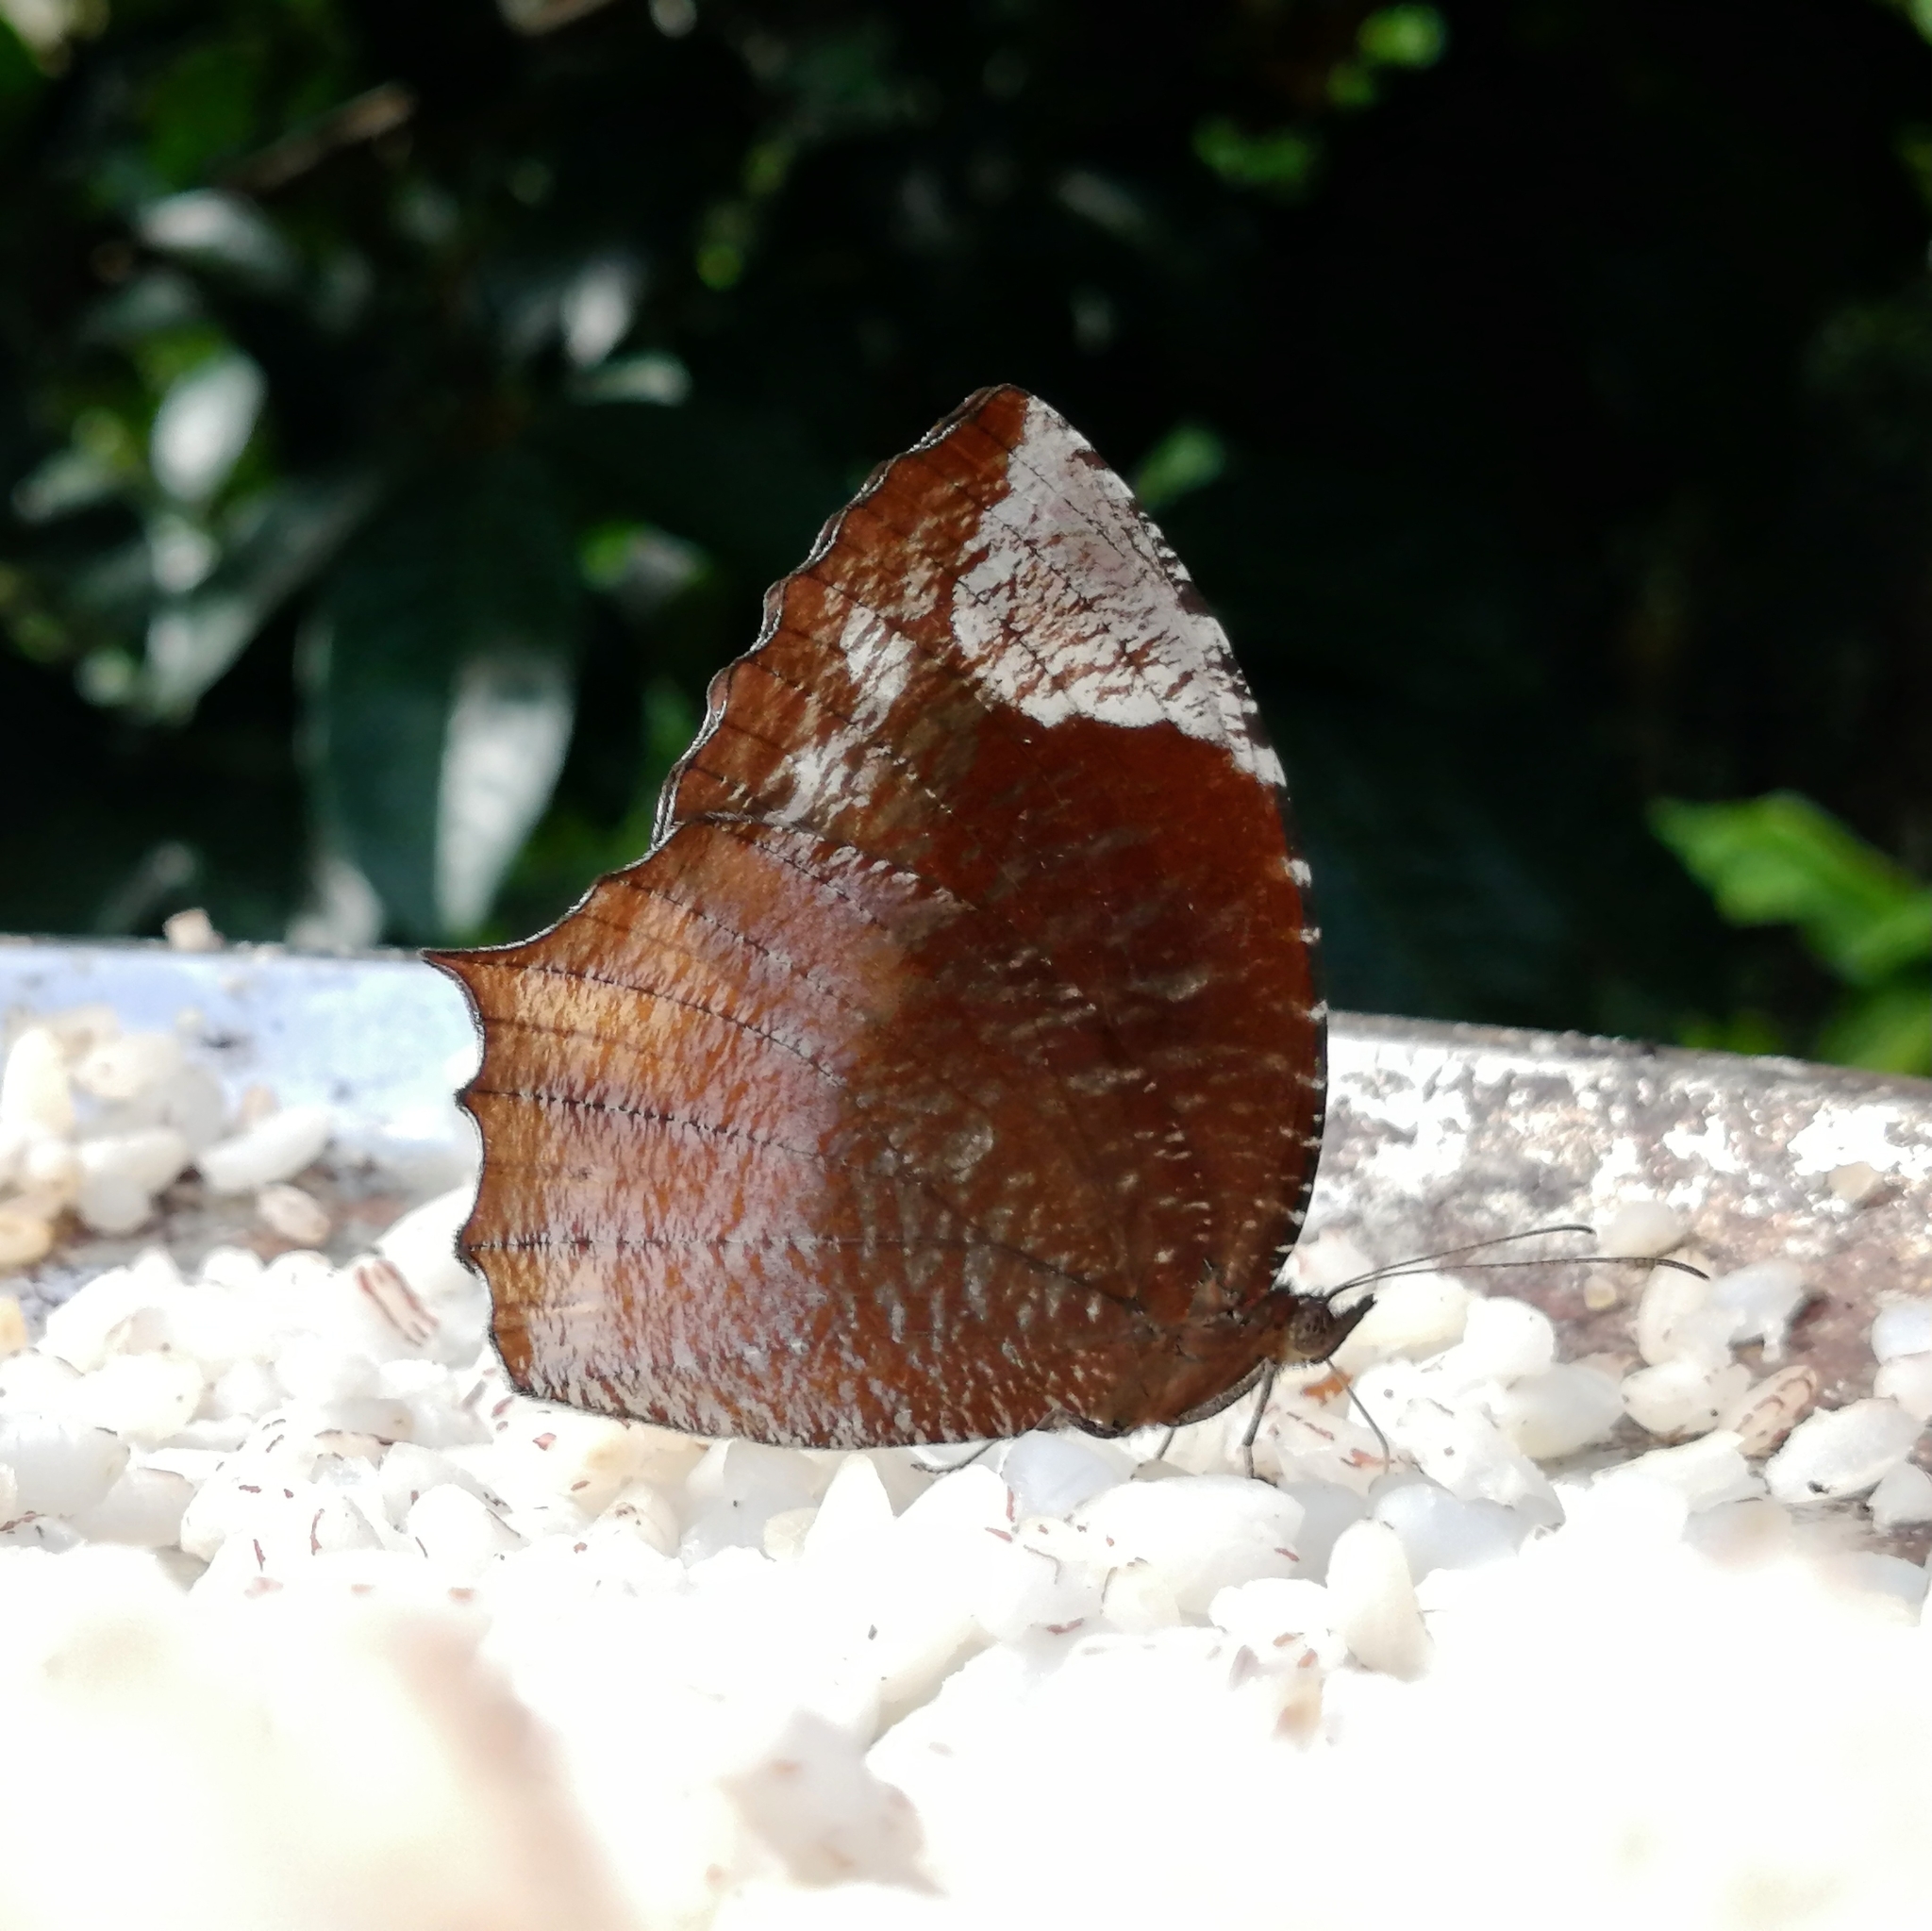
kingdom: Animalia
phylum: Arthropoda
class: Insecta
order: Lepidoptera
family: Nymphalidae
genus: Elymnias
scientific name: Elymnias caudata
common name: Tailed palmfly
